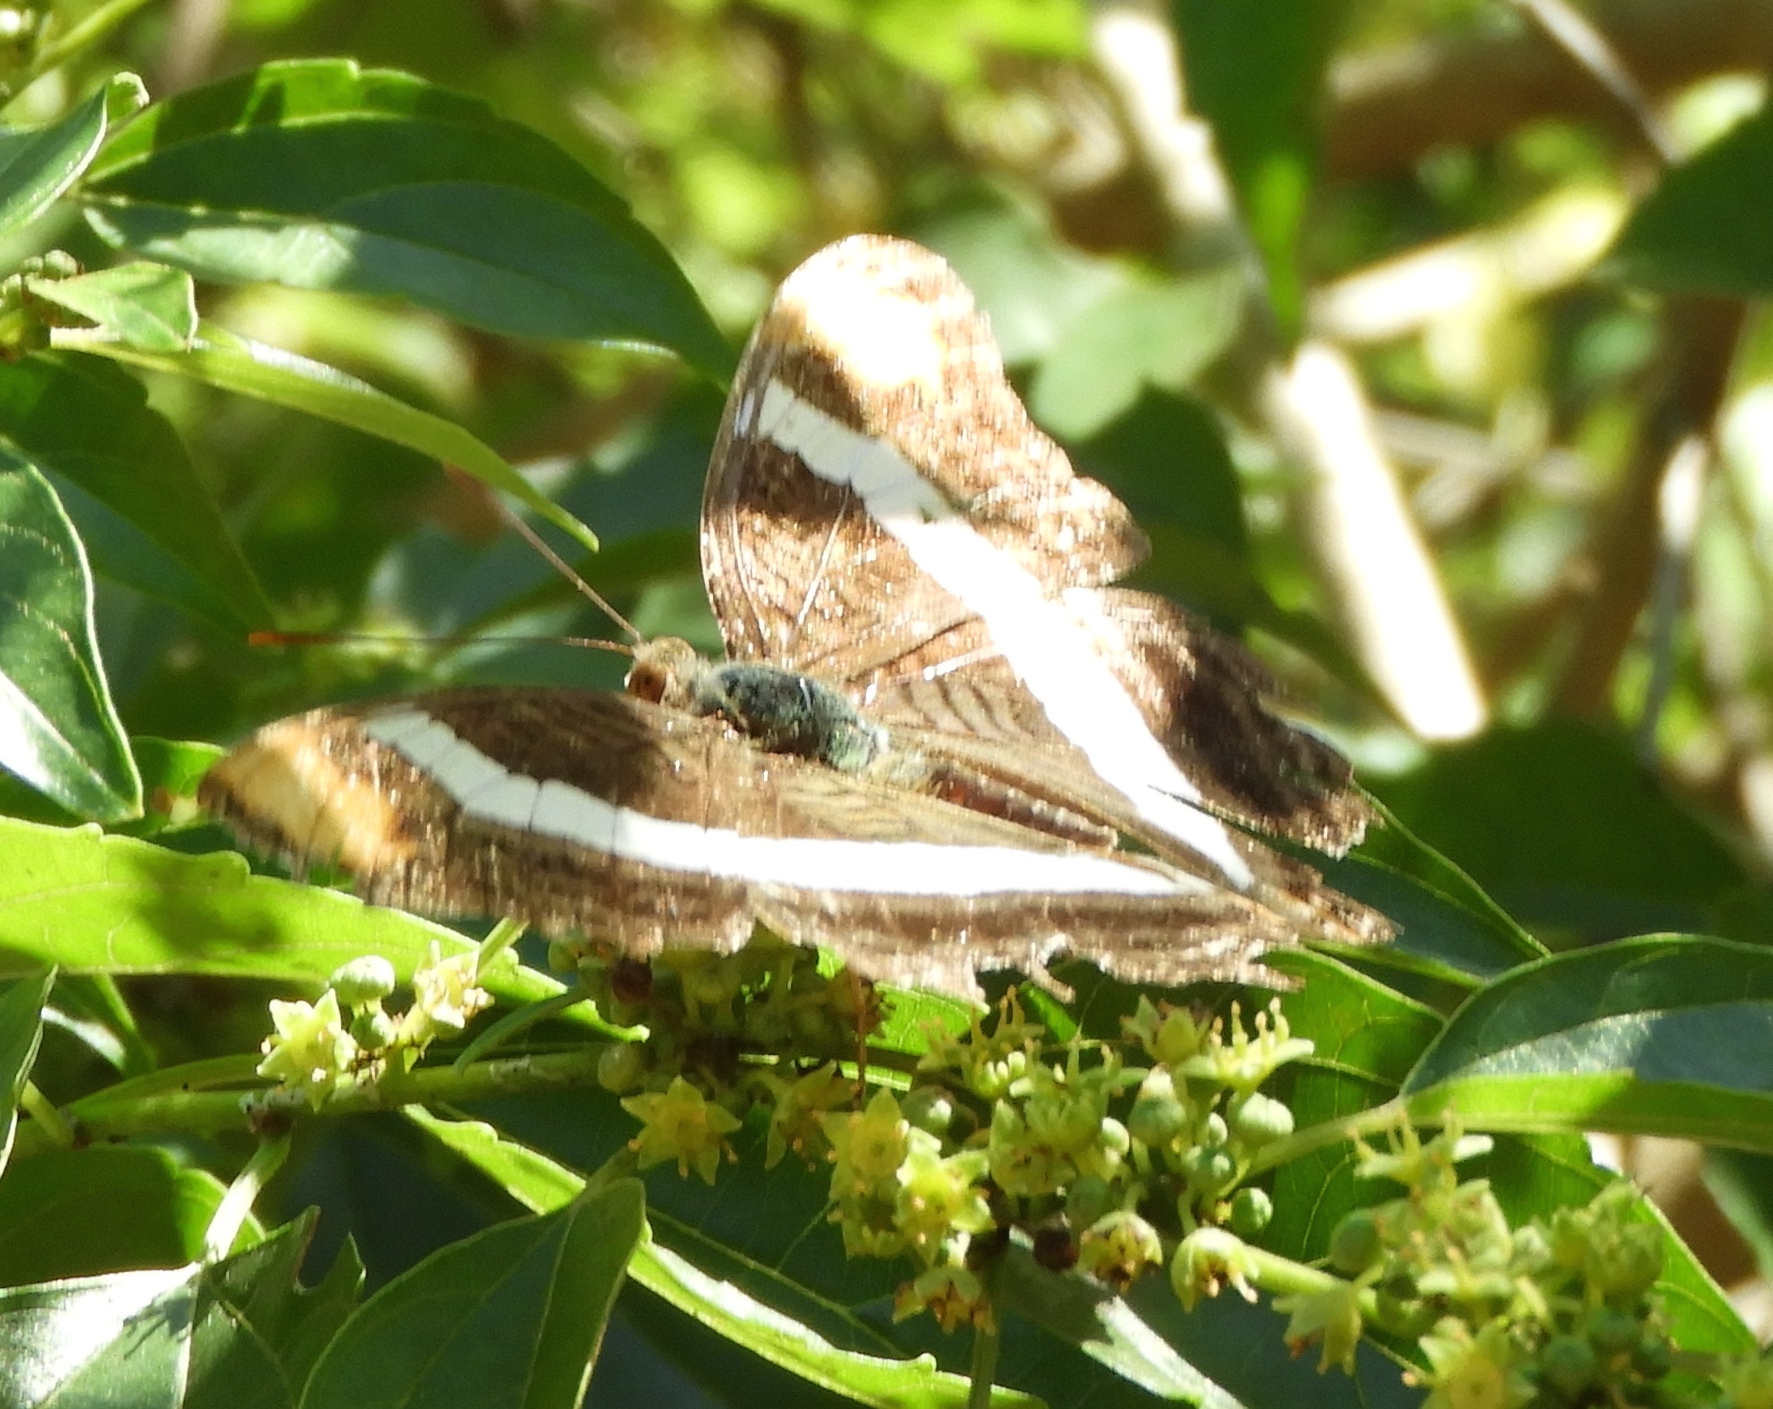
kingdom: Animalia
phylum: Arthropoda
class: Insecta
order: Lepidoptera
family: Nymphalidae
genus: Limenitis
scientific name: Limenitis fessonia
